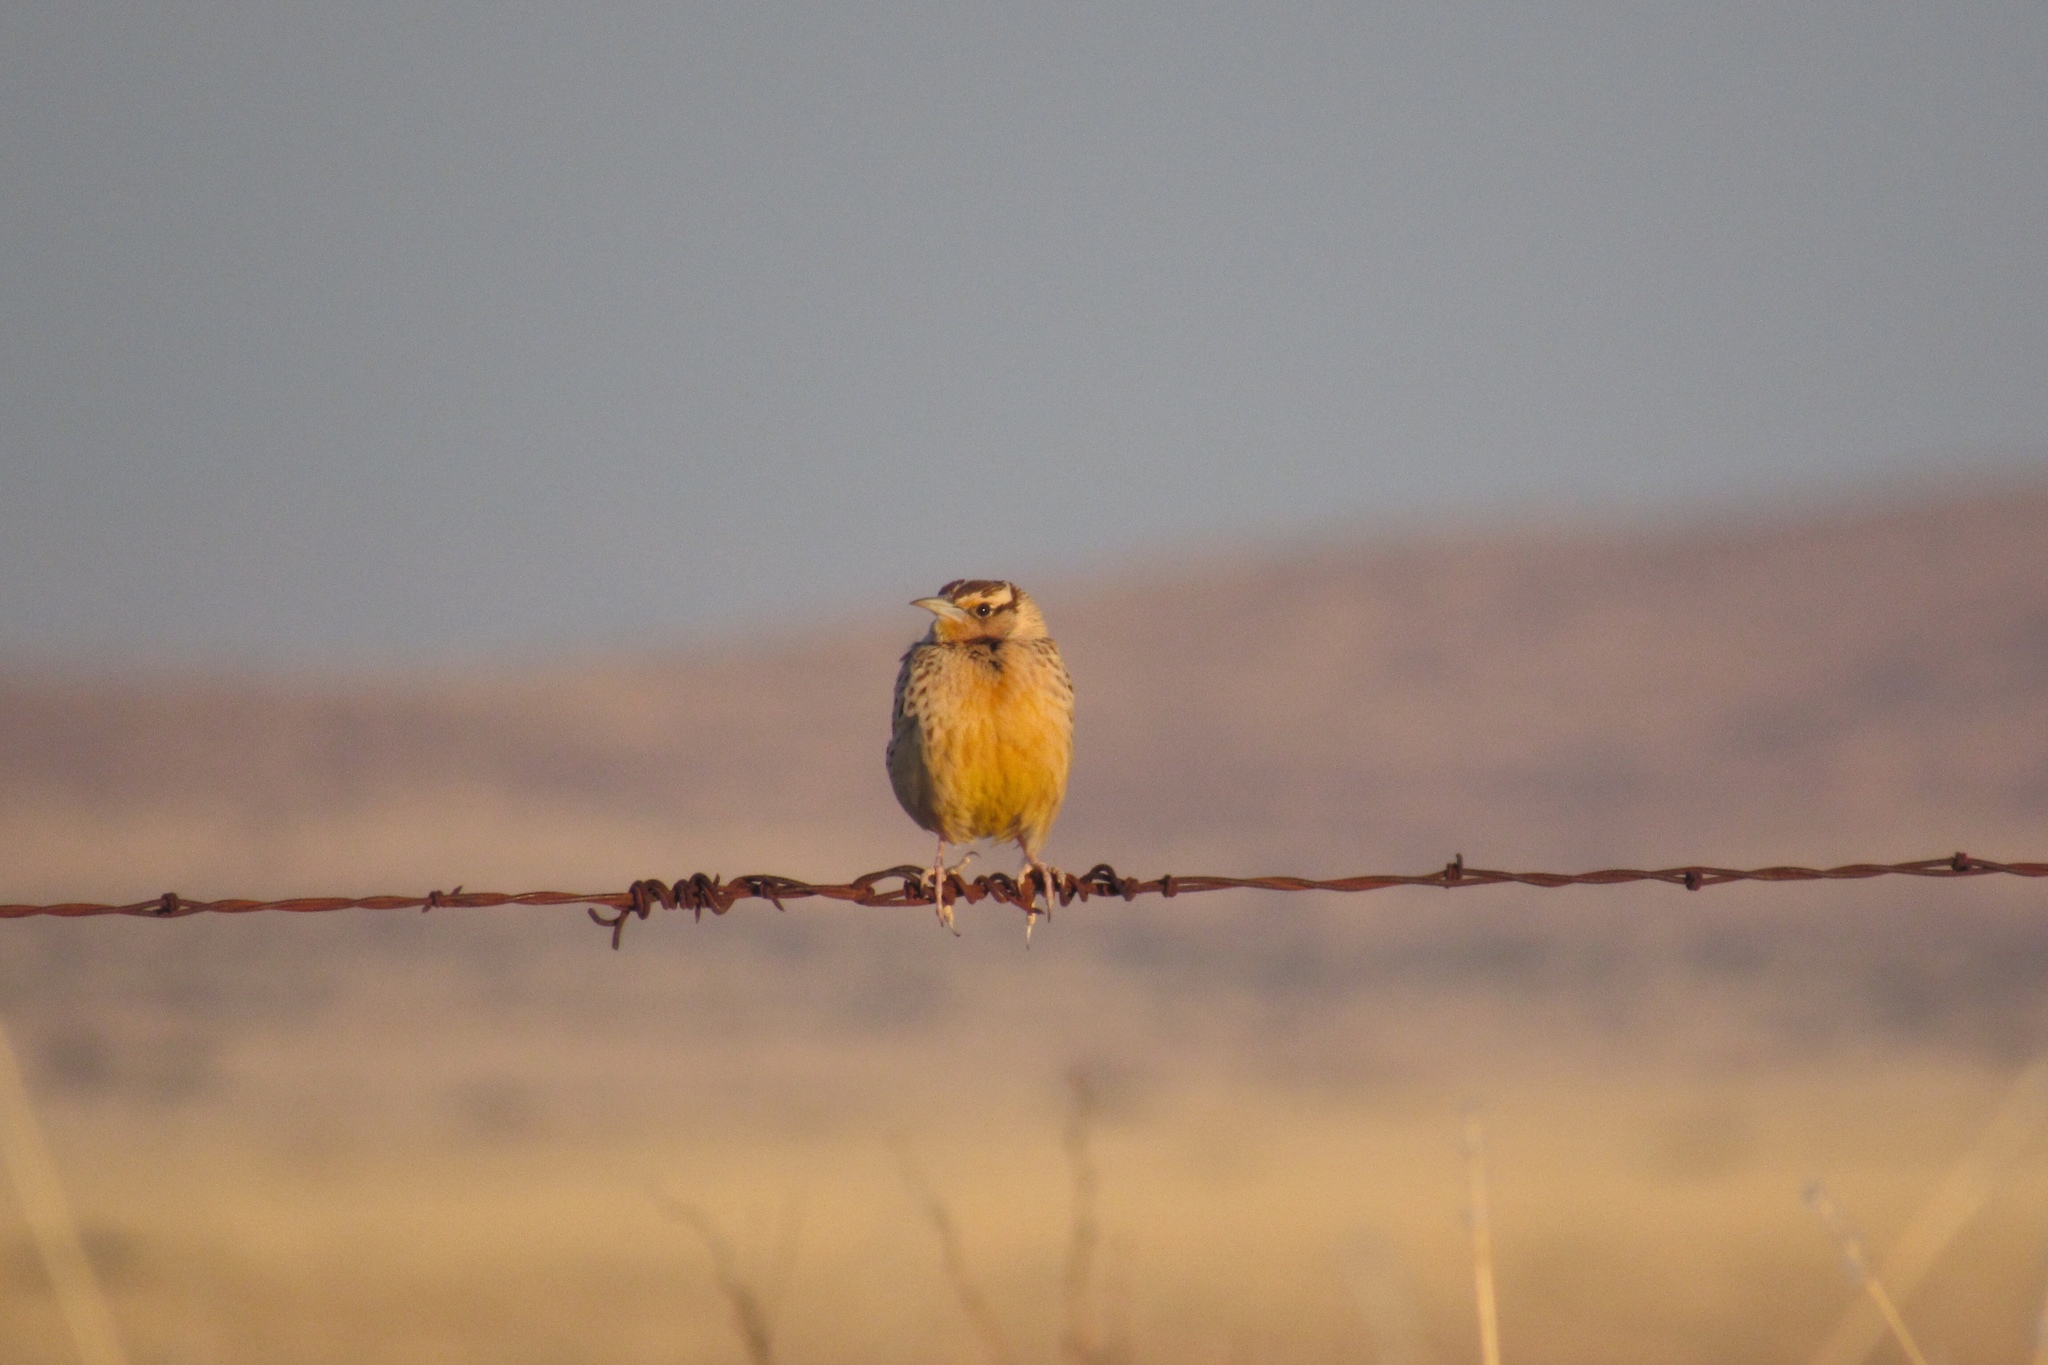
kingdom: Animalia
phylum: Chordata
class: Aves
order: Passeriformes
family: Icteridae
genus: Sturnella
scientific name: Sturnella lilianae
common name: Lilian's meadowlark
